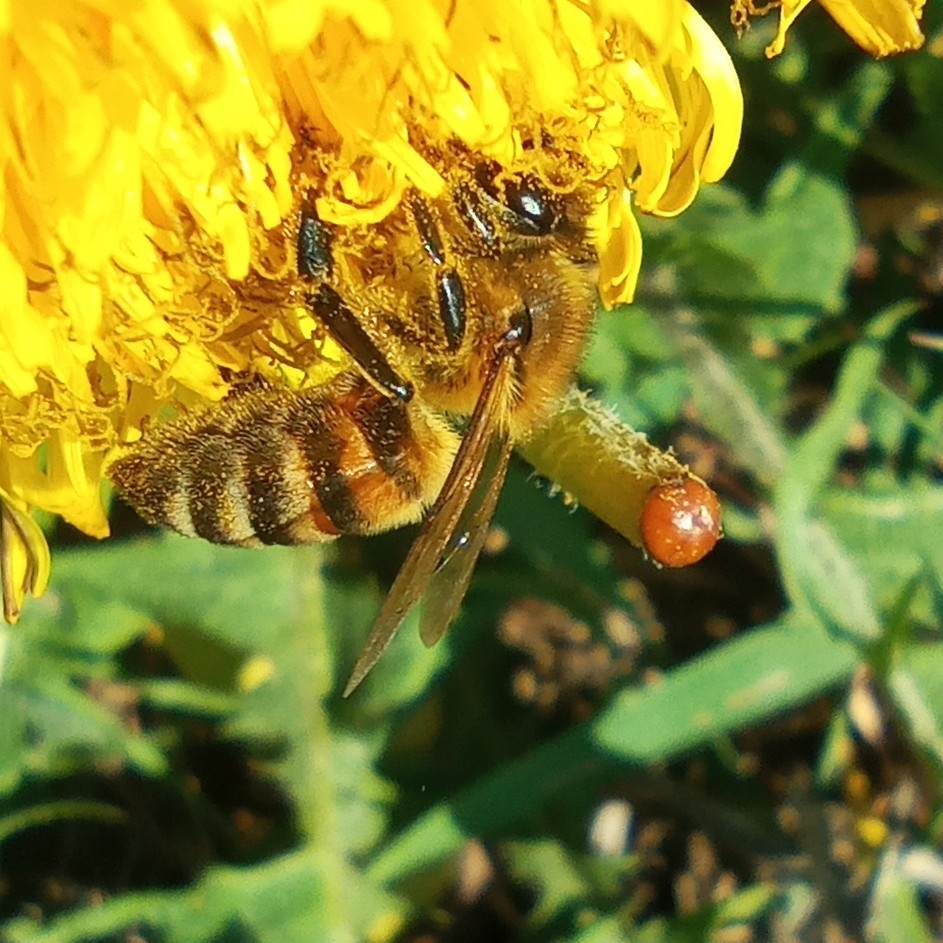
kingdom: Animalia
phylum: Arthropoda
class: Insecta
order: Hymenoptera
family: Apidae
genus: Apis
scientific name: Apis mellifera
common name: Honey bee
